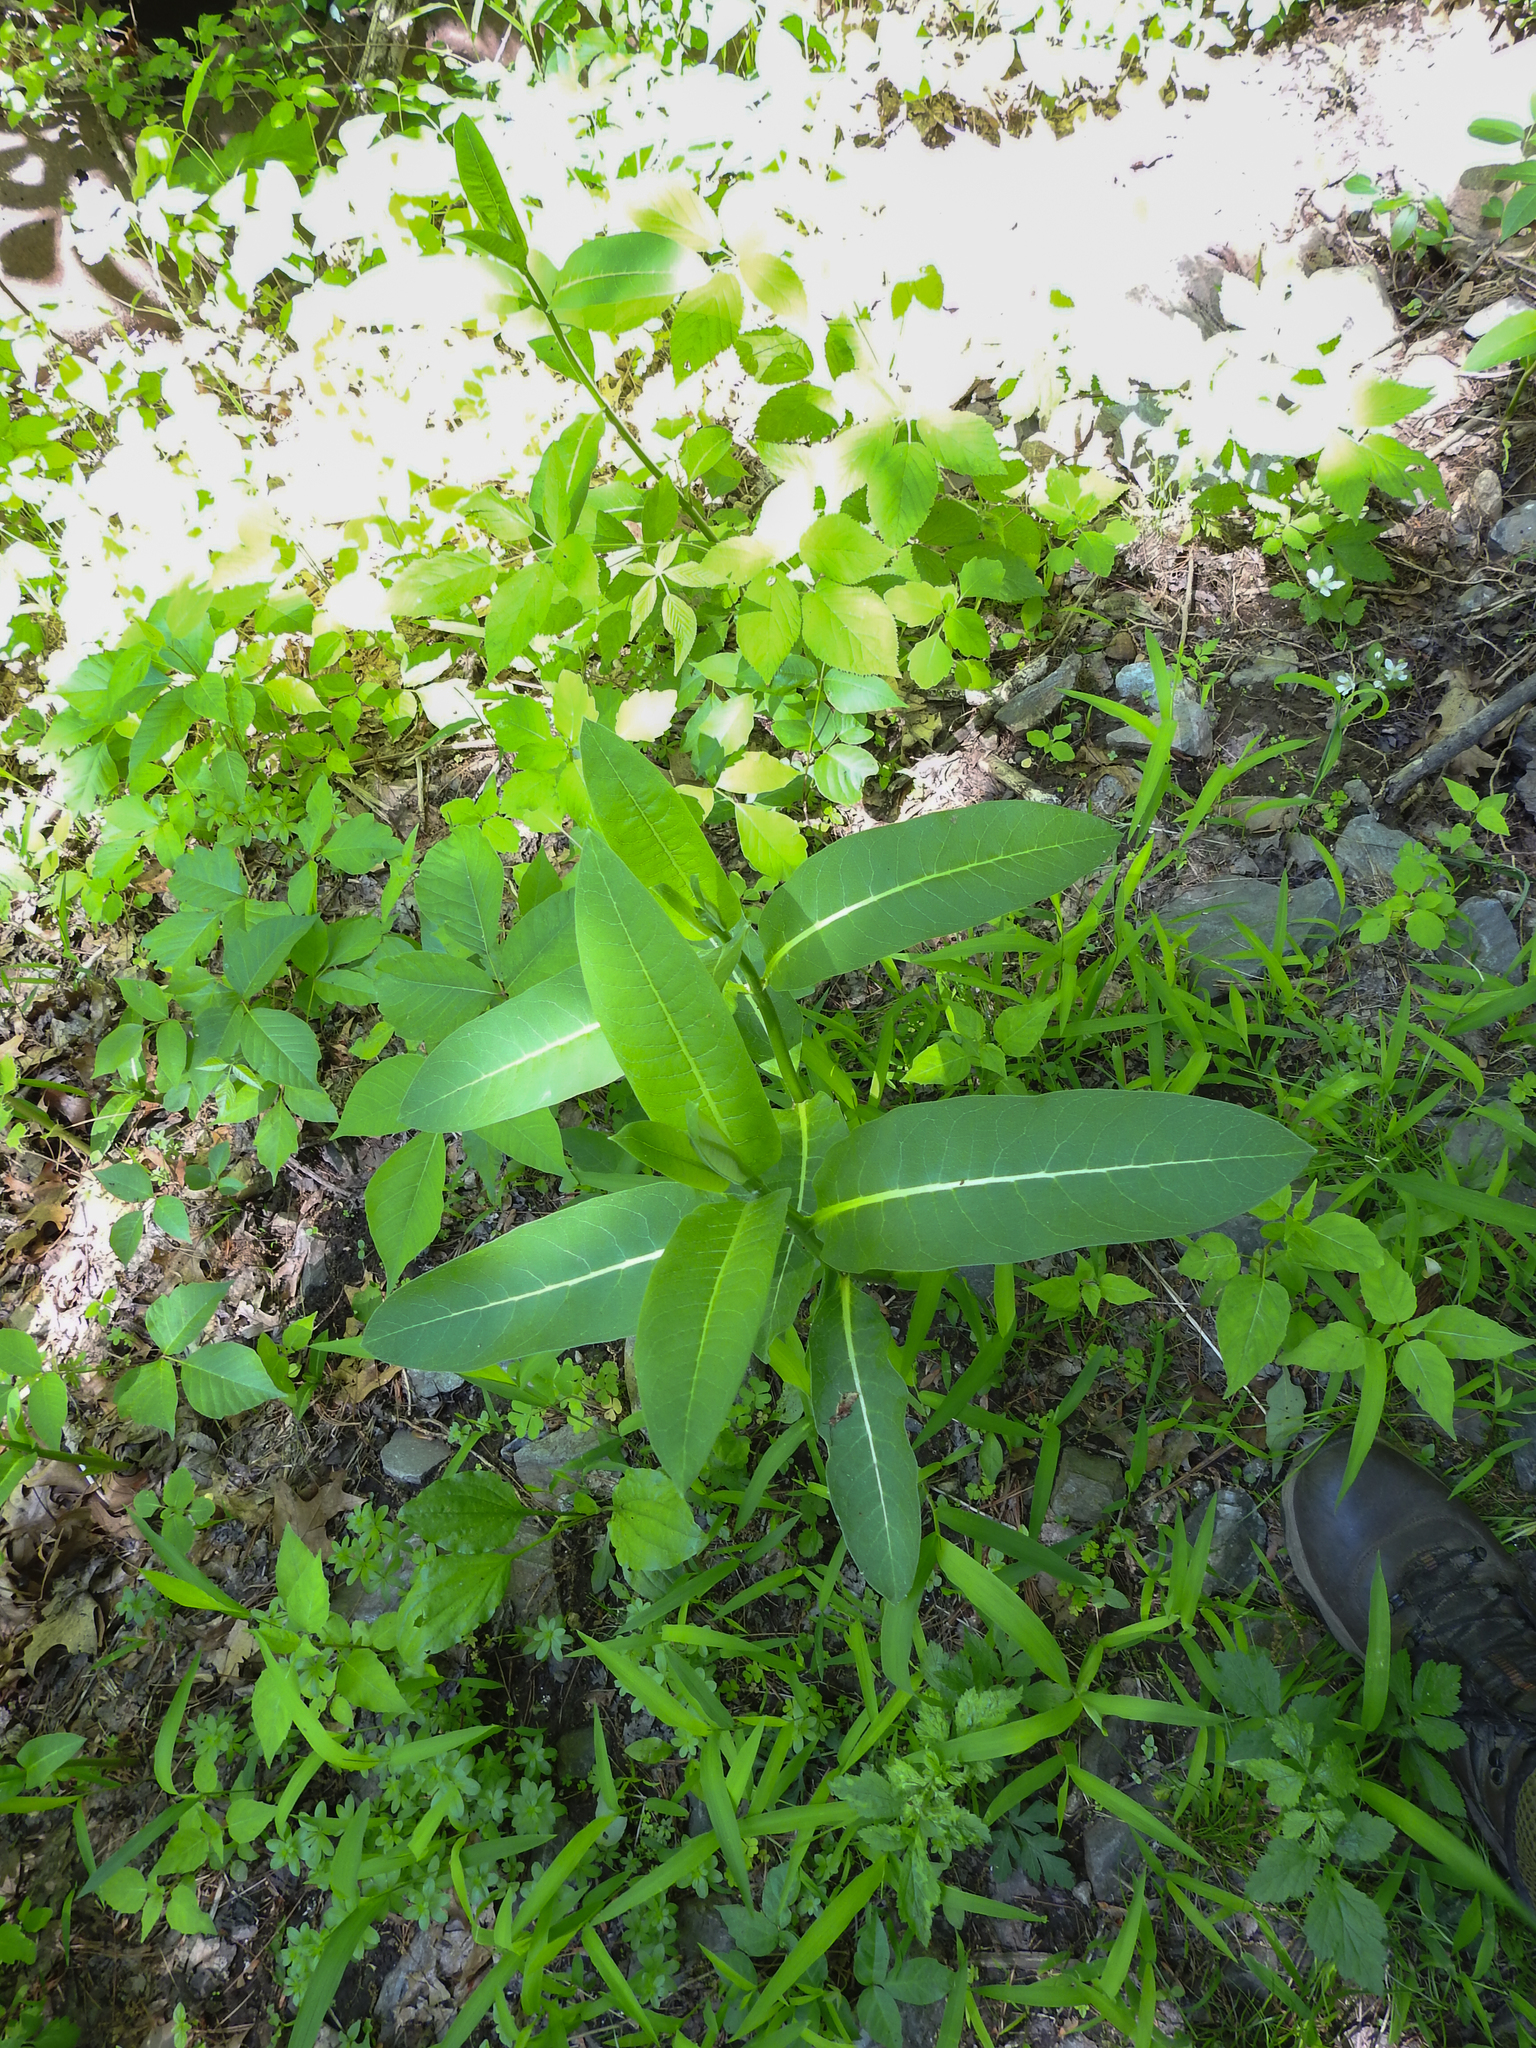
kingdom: Plantae
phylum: Tracheophyta
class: Magnoliopsida
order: Gentianales
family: Apocynaceae
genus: Apocynum
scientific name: Apocynum cannabinum
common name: Hemp dogbane
